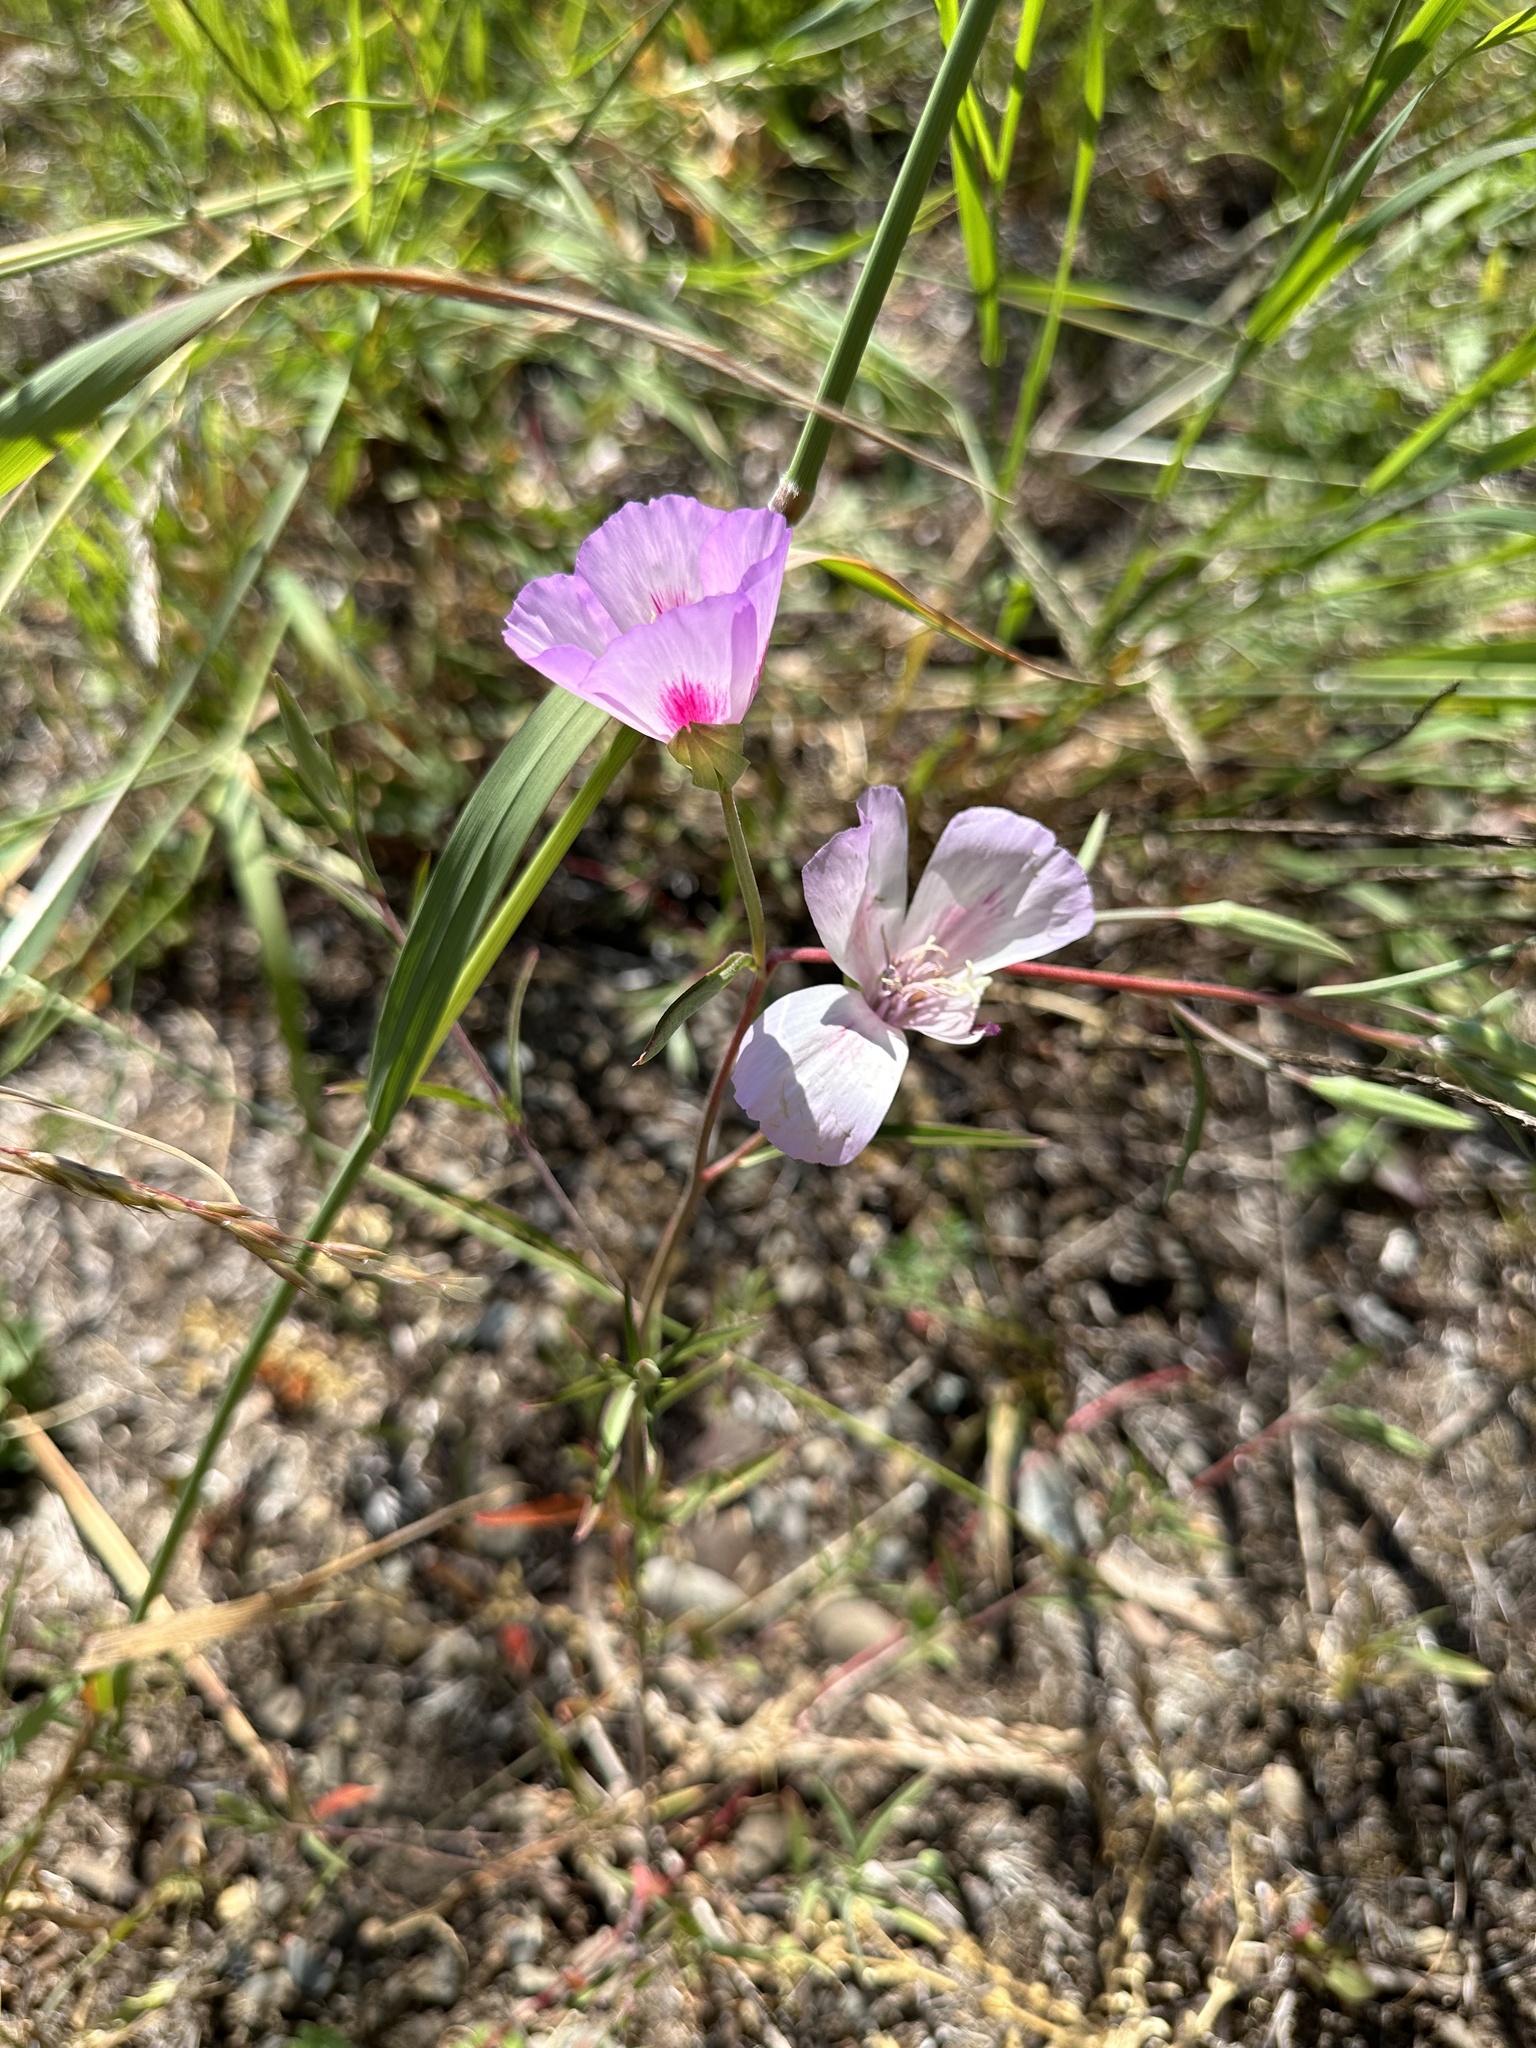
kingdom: Plantae
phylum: Tracheophyta
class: Magnoliopsida
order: Myrtales
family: Onagraceae
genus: Clarkia
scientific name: Clarkia amoena
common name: Godetia
